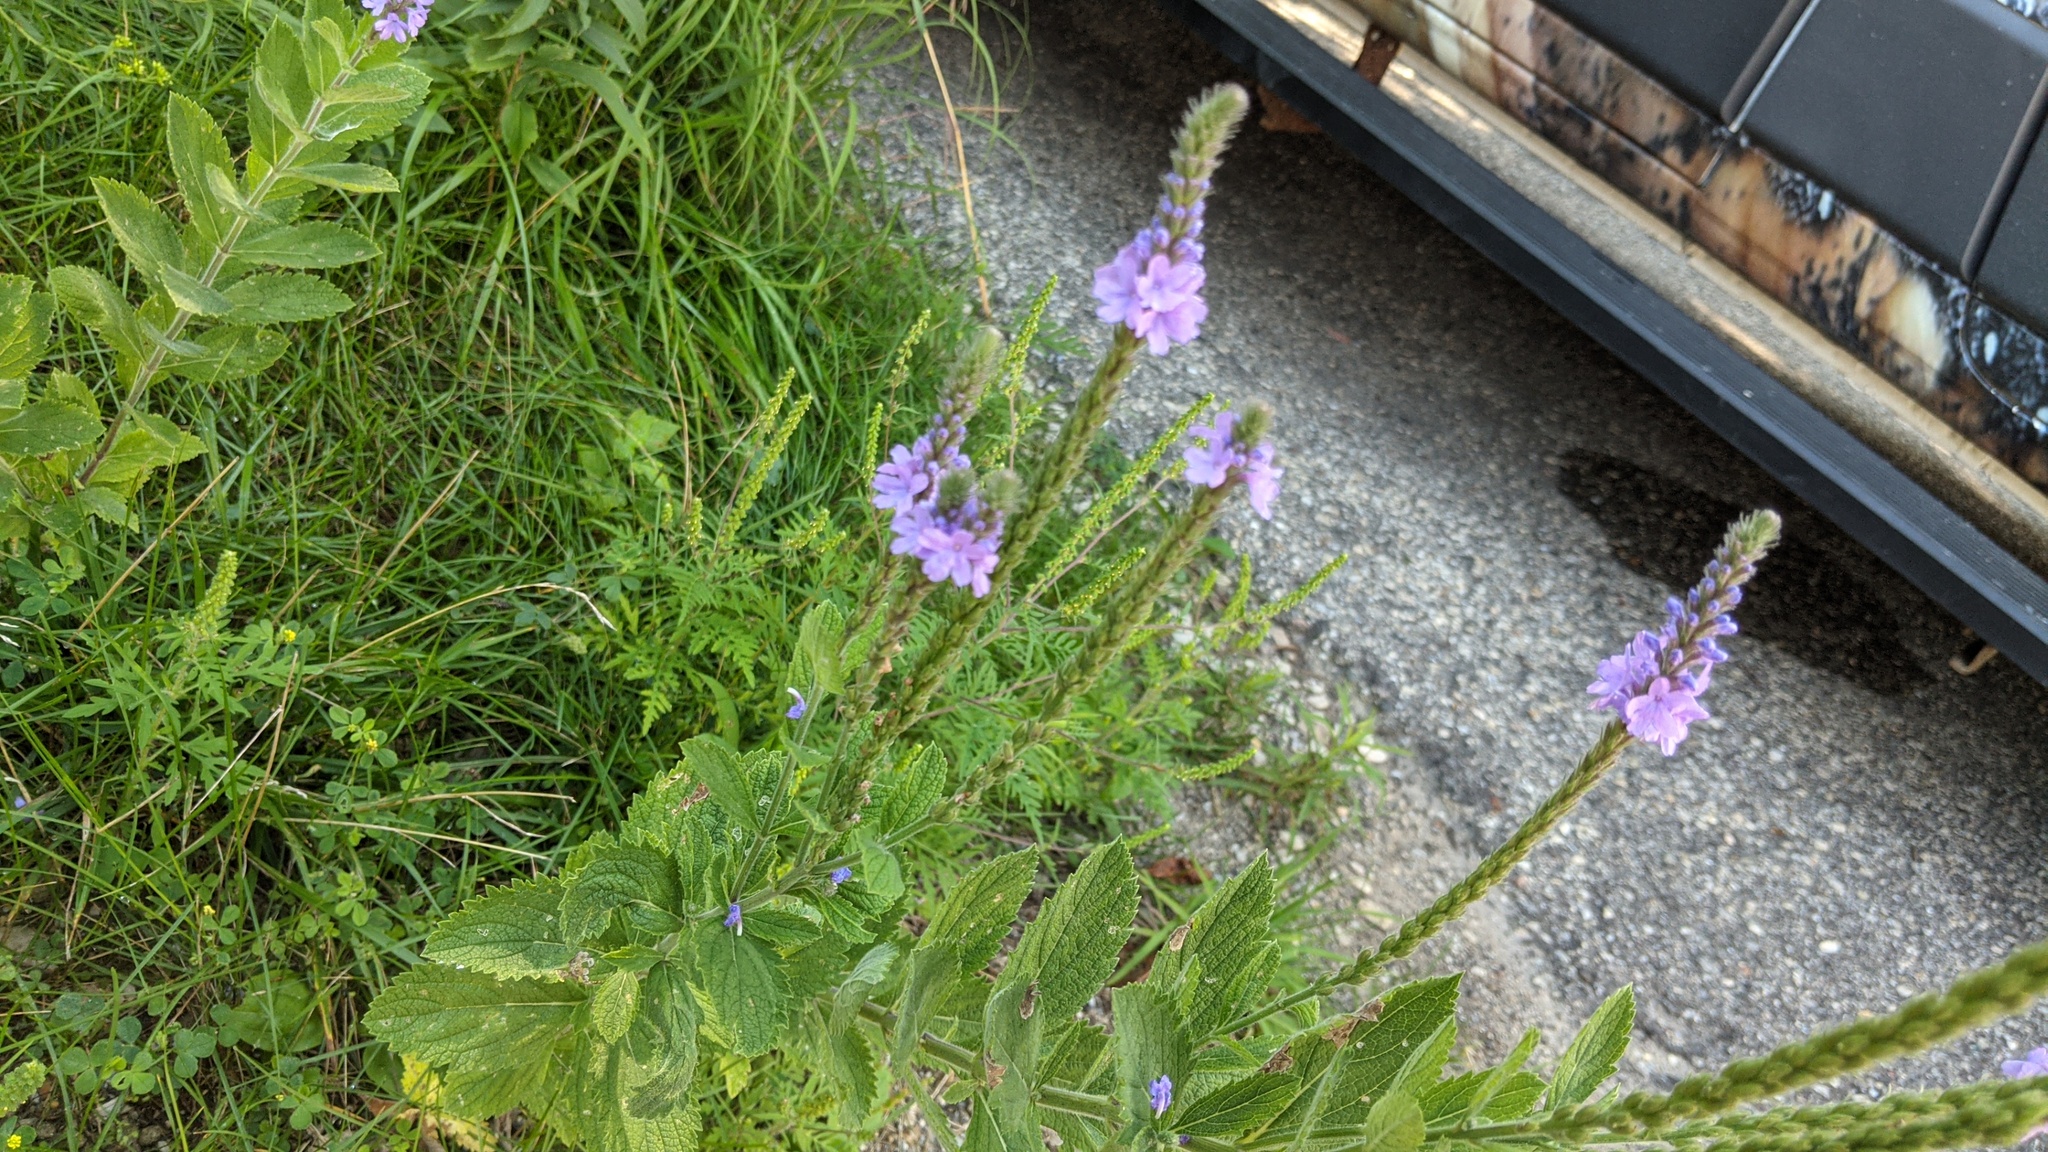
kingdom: Plantae
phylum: Tracheophyta
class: Magnoliopsida
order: Lamiales
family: Verbenaceae
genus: Verbena
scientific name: Verbena stricta
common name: Hoary vervain
